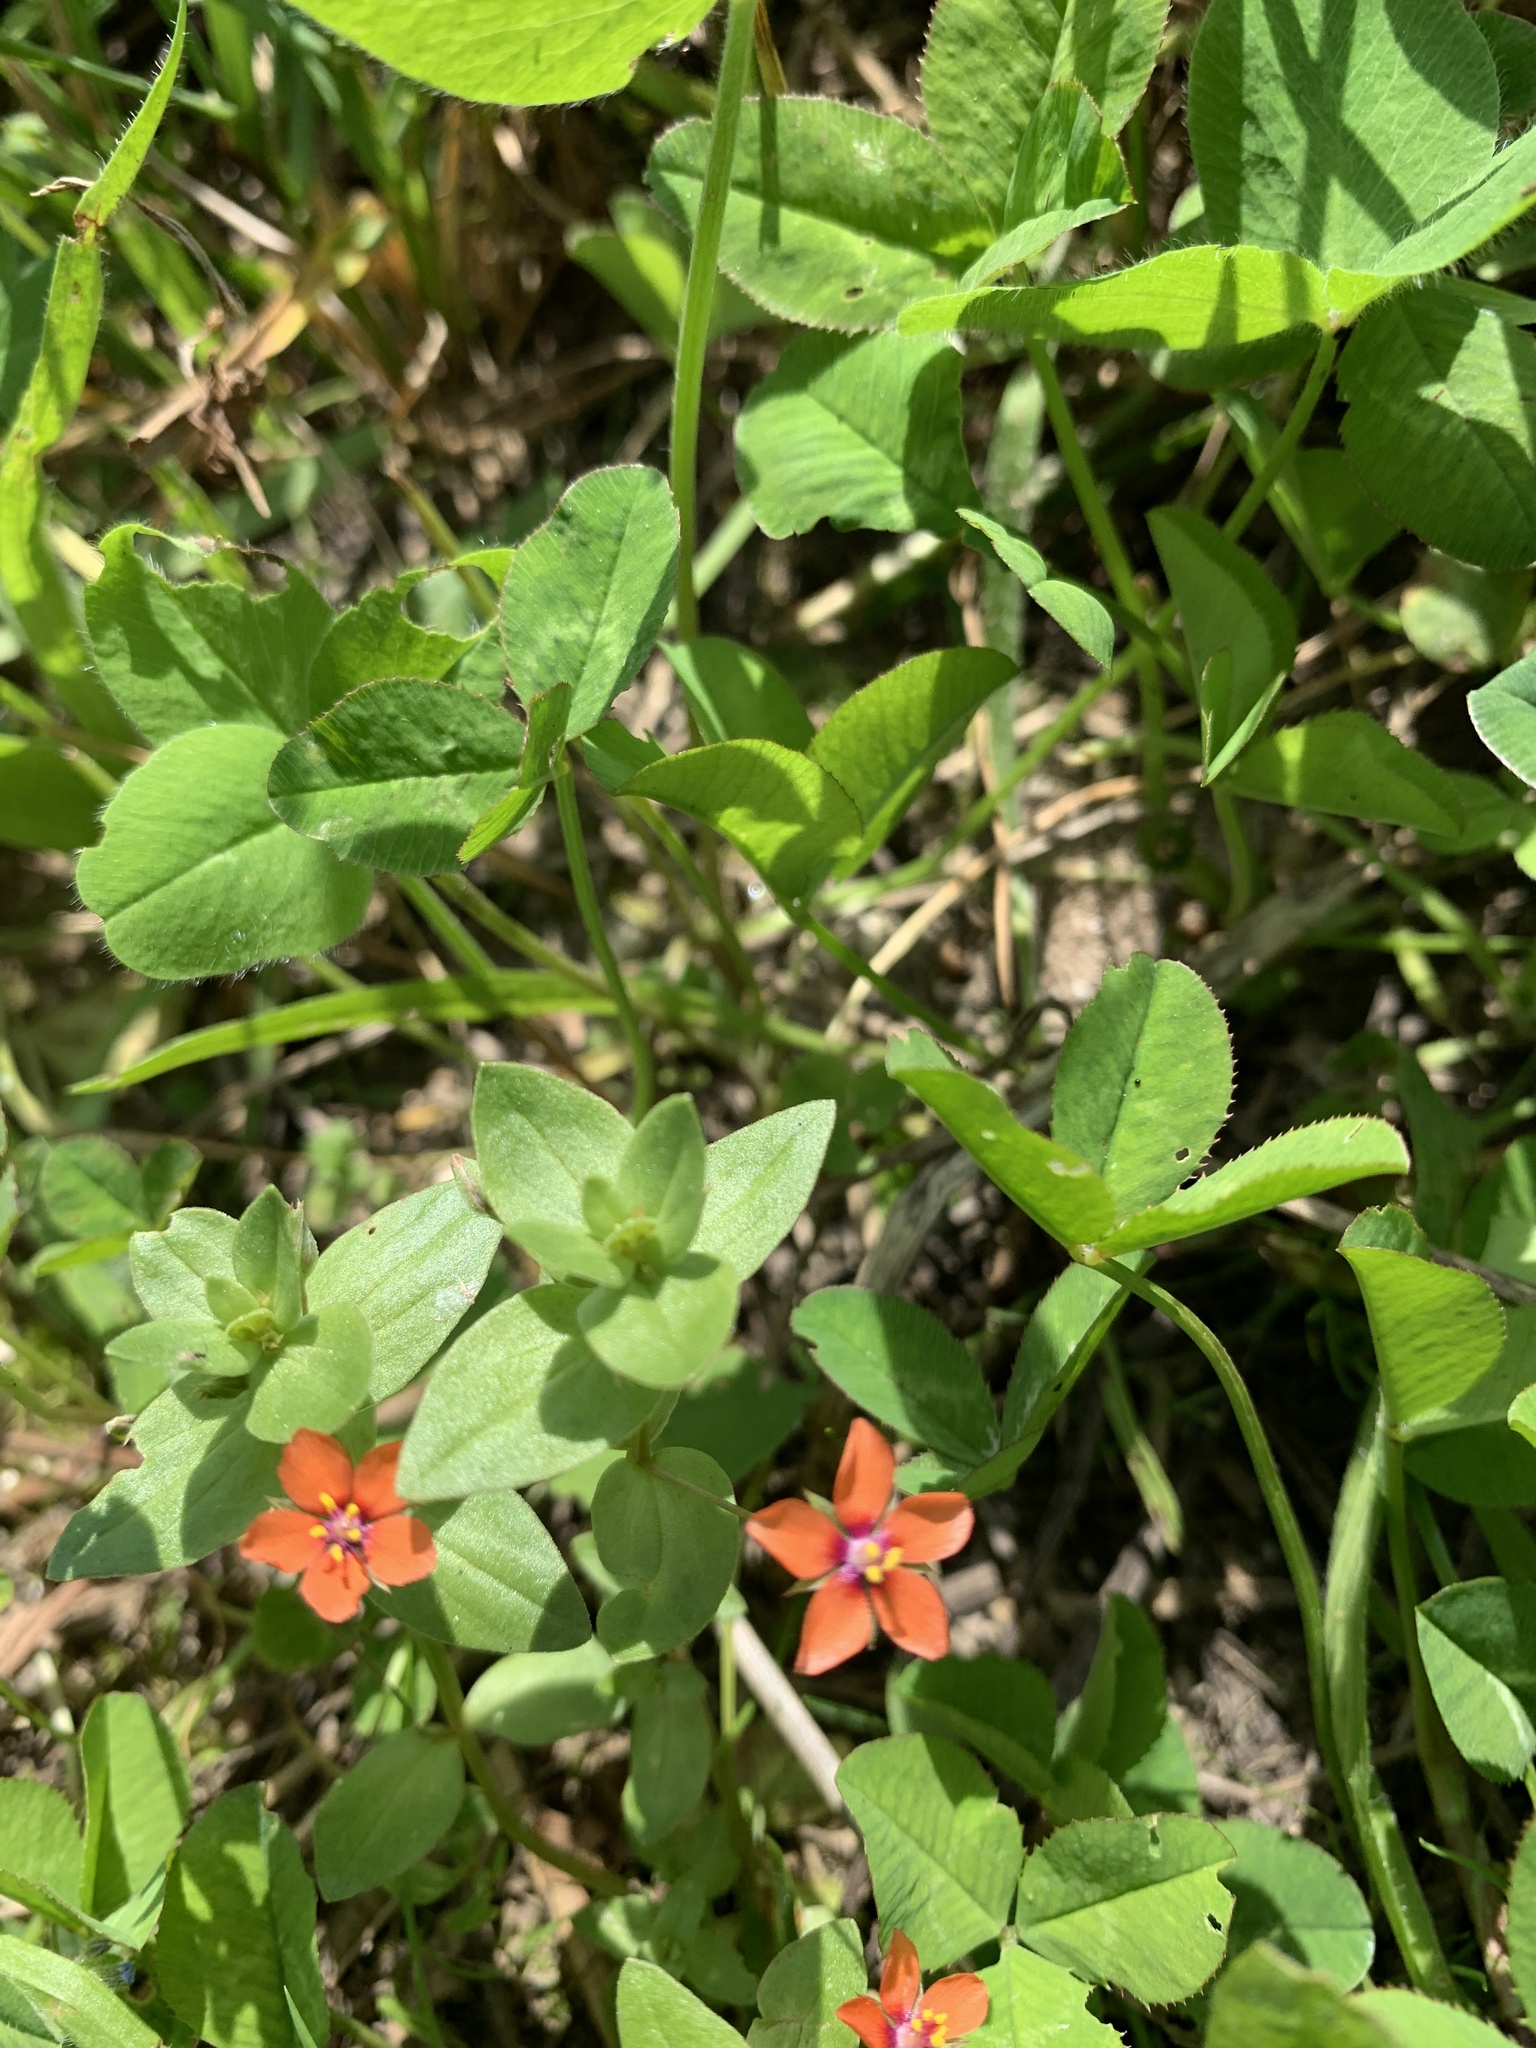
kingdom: Plantae
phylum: Tracheophyta
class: Magnoliopsida
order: Ericales
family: Primulaceae
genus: Lysimachia
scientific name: Lysimachia arvensis
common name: Scarlet pimpernel
